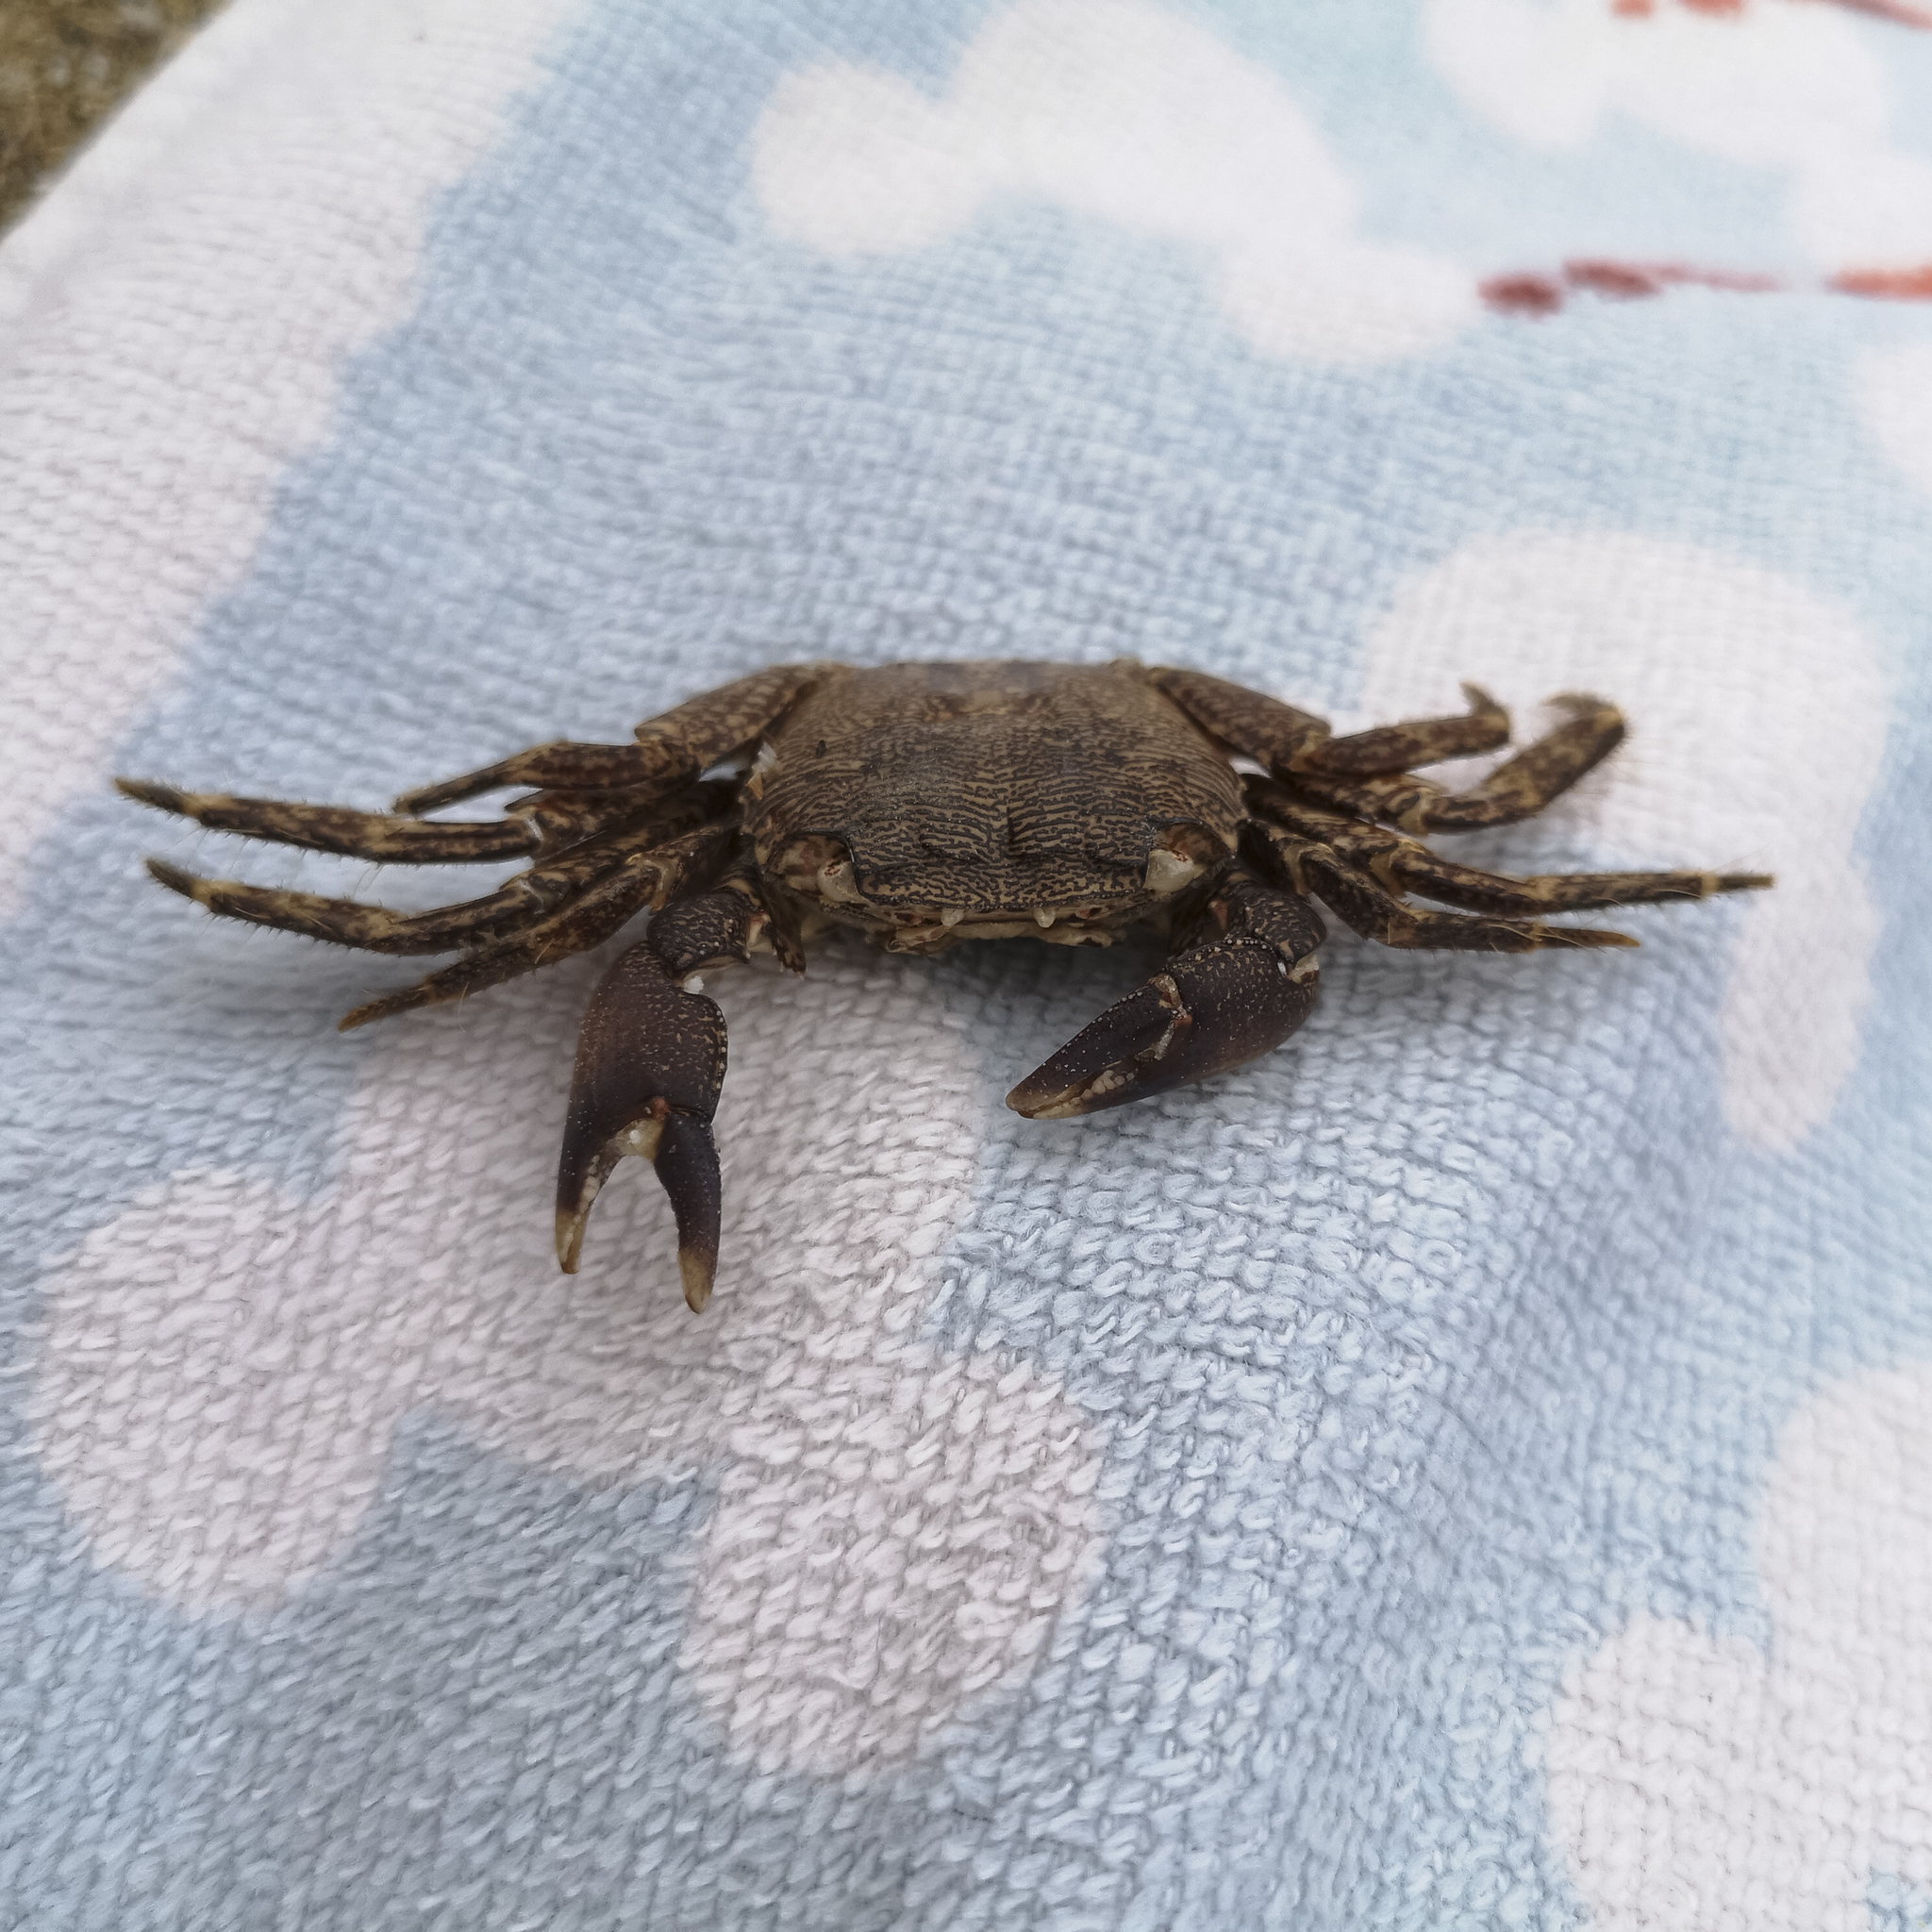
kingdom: Animalia
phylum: Arthropoda
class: Malacostraca
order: Decapoda
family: Grapsidae
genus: Pachygrapsus
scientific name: Pachygrapsus marmoratus
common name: Marbled rock crab
